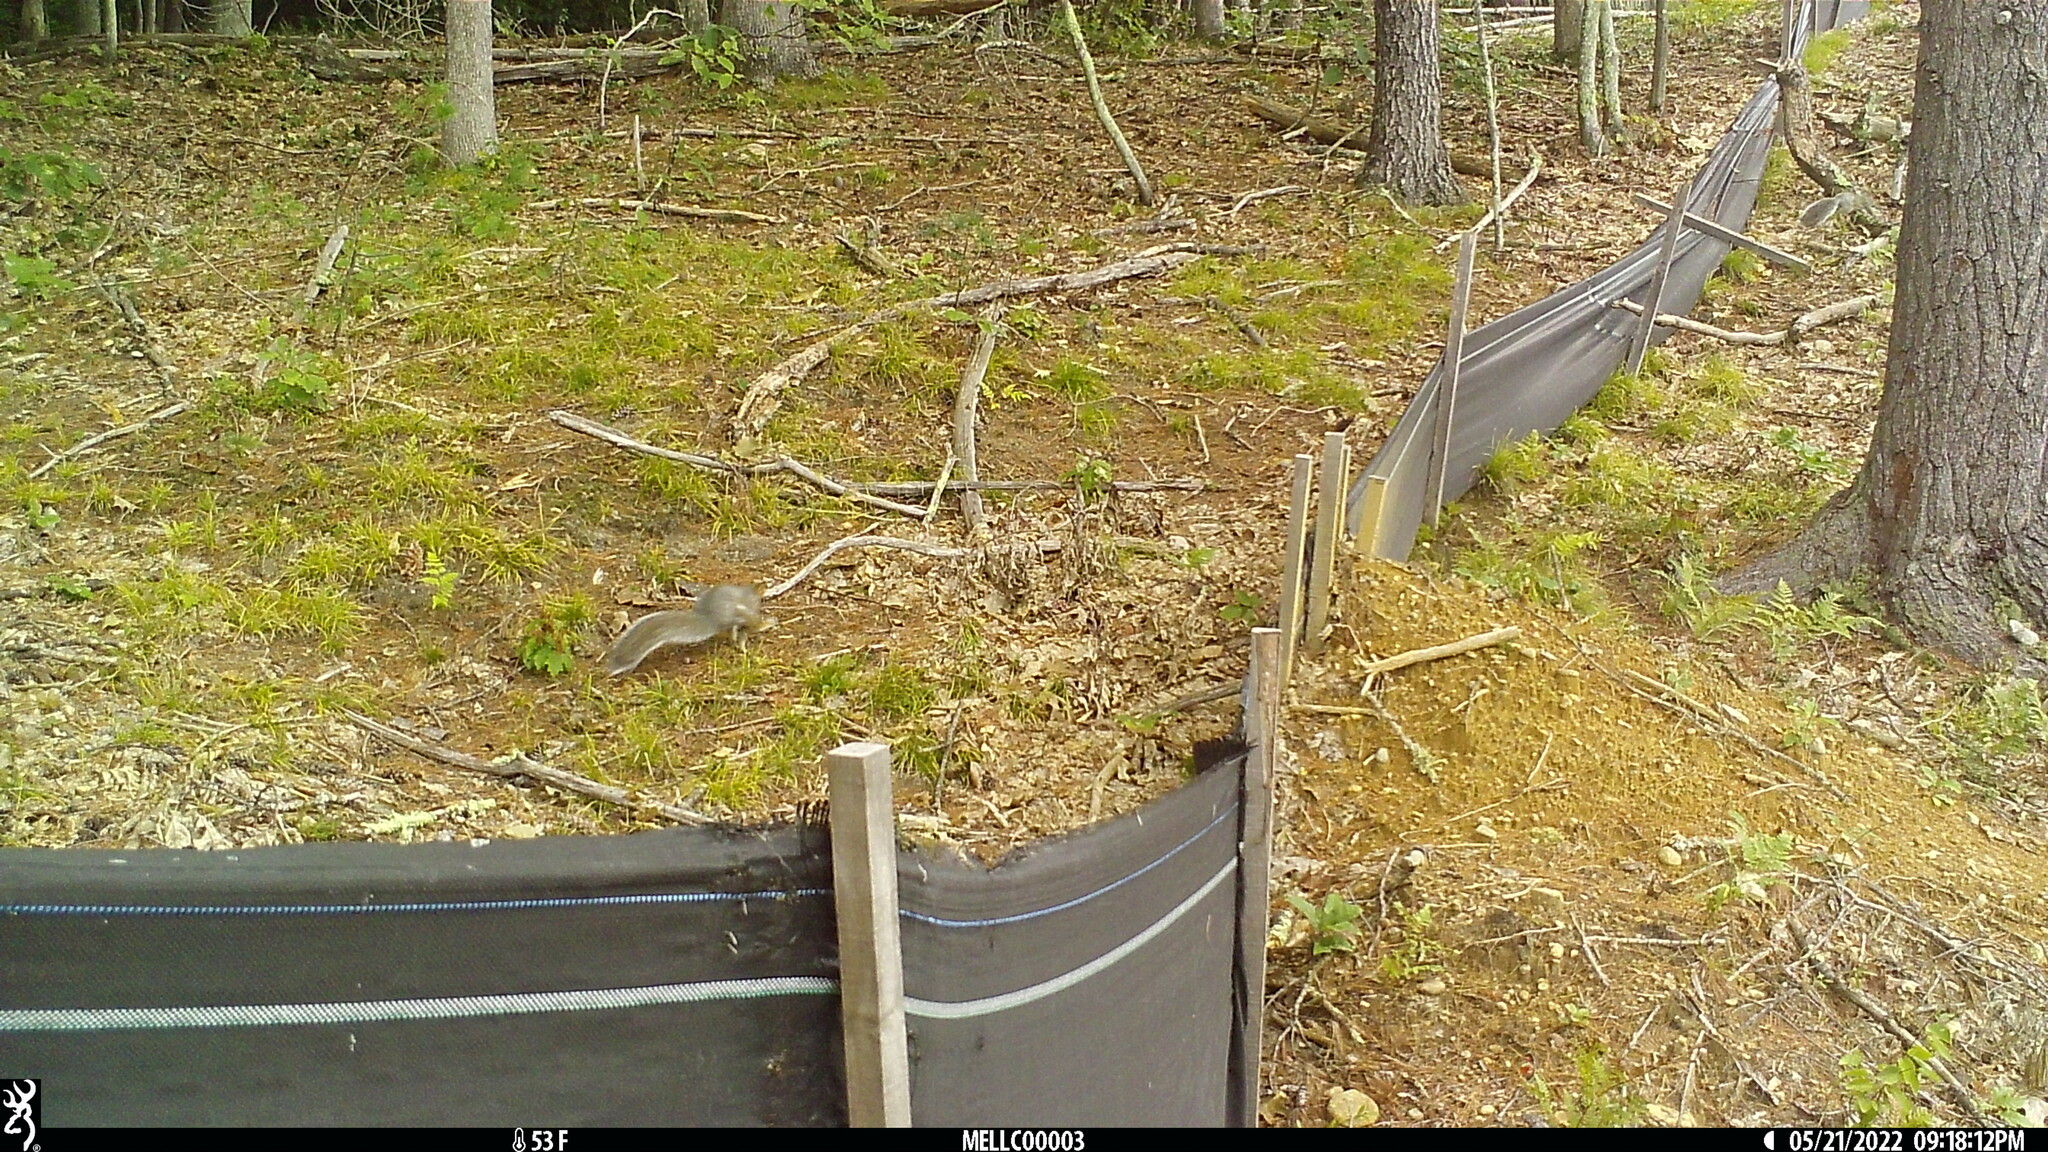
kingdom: Animalia
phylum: Chordata
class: Mammalia
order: Rodentia
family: Sciuridae
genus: Sciurus
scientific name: Sciurus carolinensis
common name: Eastern gray squirrel
